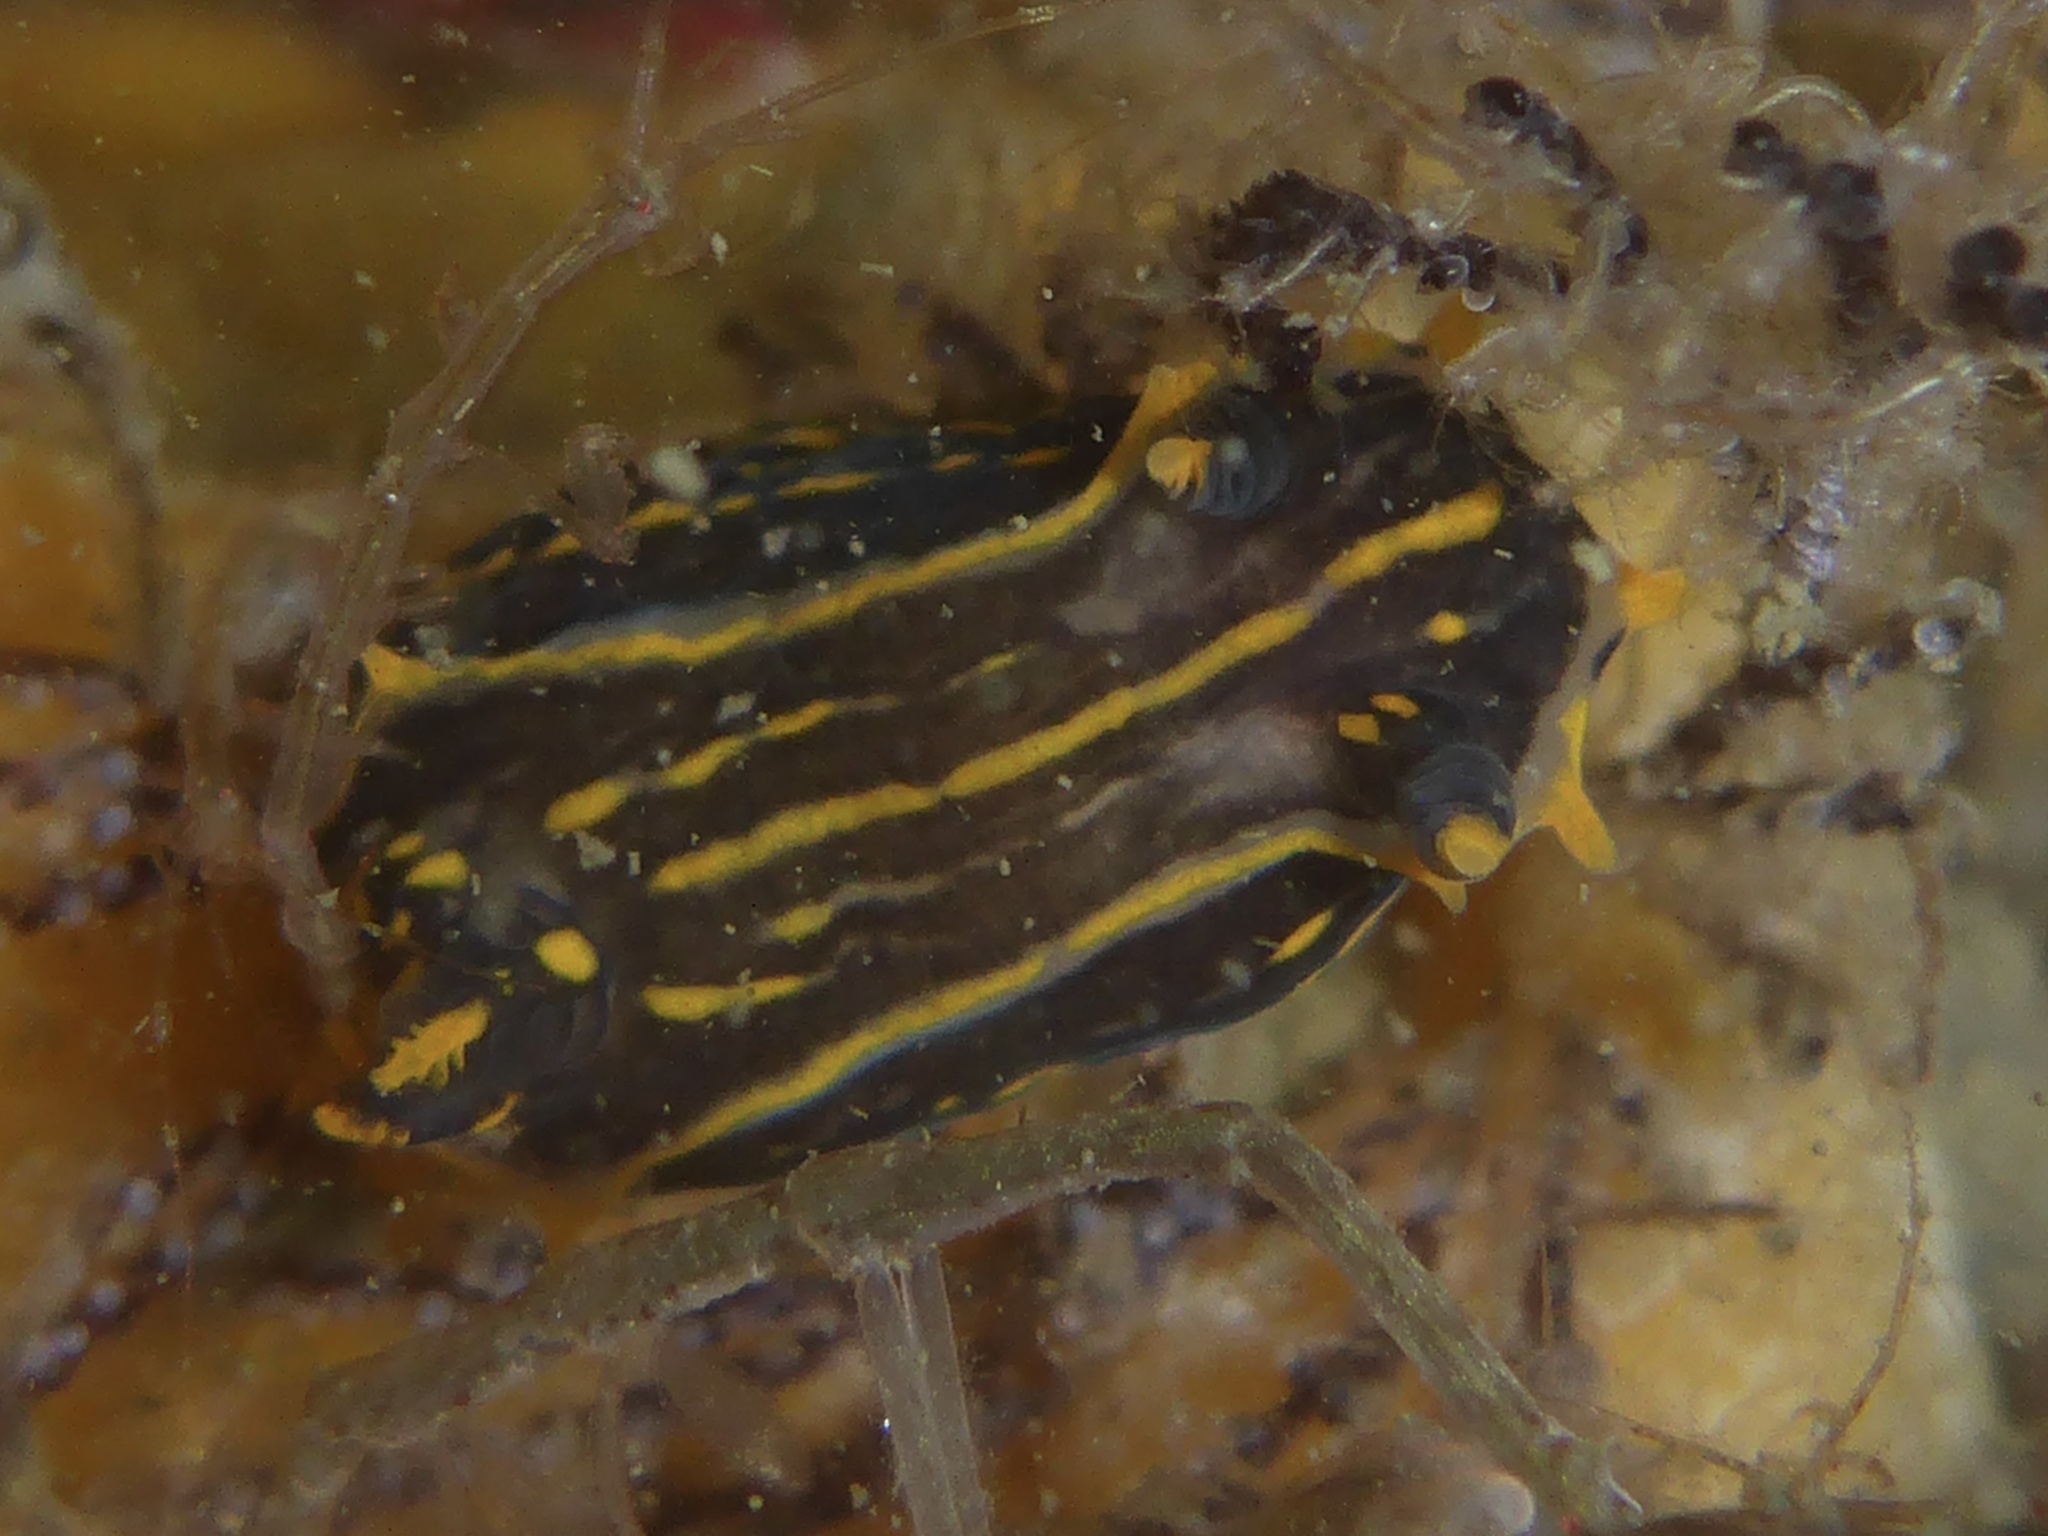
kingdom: Animalia
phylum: Mollusca
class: Gastropoda
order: Nudibranchia
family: Polyceridae
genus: Polycera
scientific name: Polycera atra
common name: Orange-spike polycera
